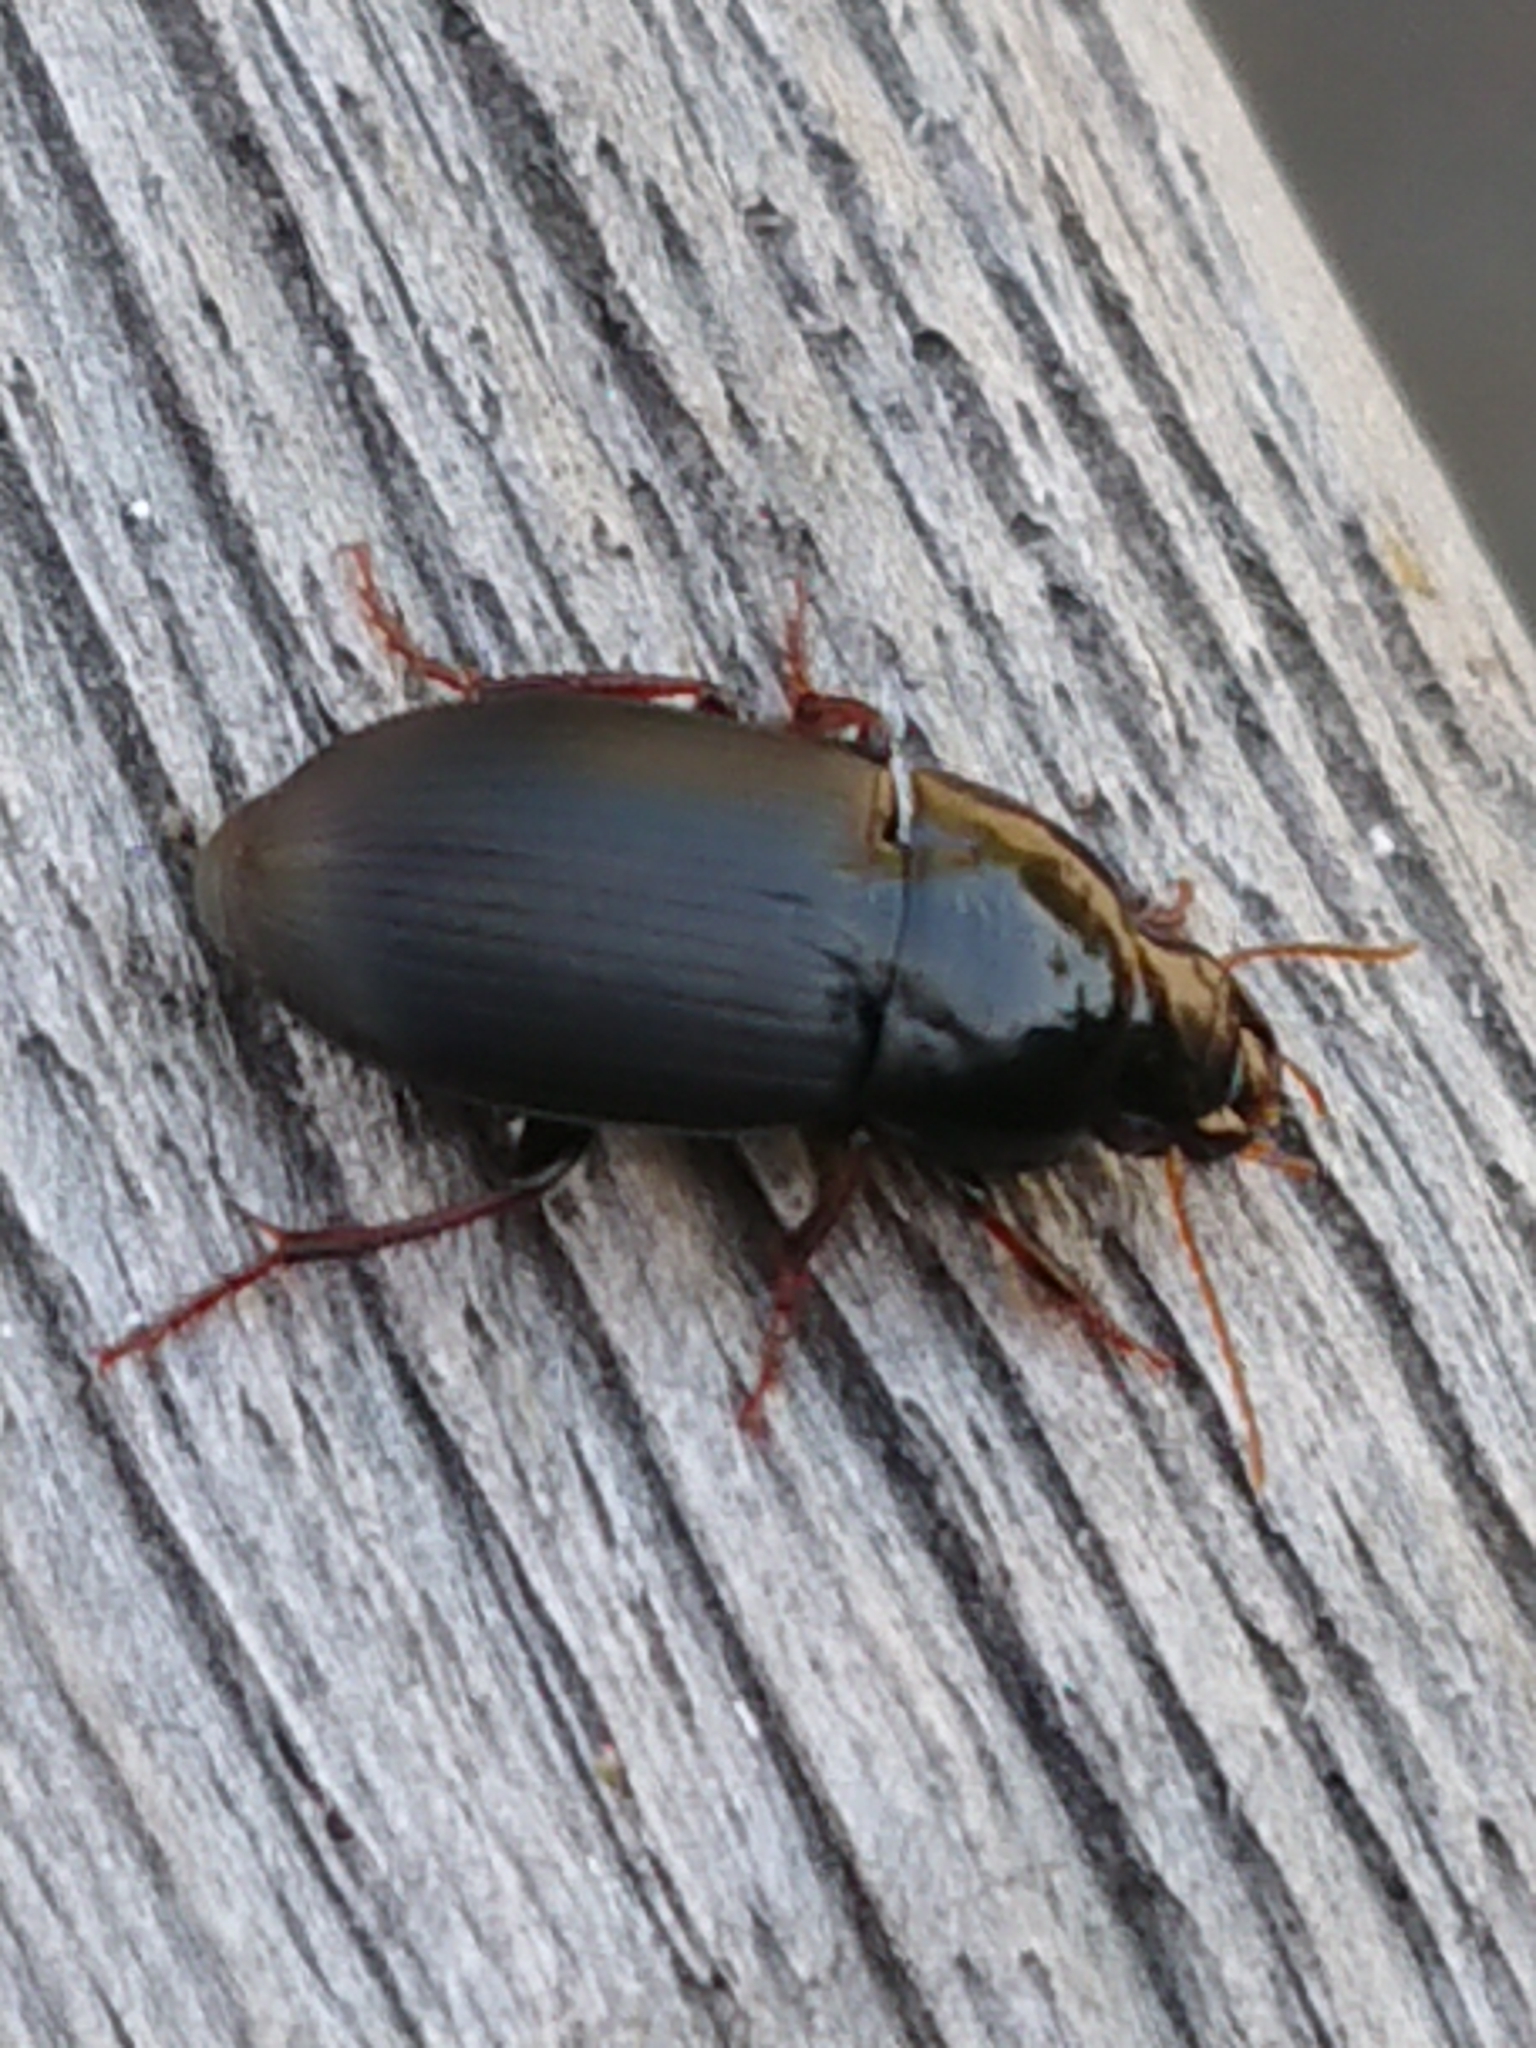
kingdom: Animalia
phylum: Arthropoda
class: Insecta
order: Coleoptera
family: Carabidae
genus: Harpalus
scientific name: Harpalus tardus
